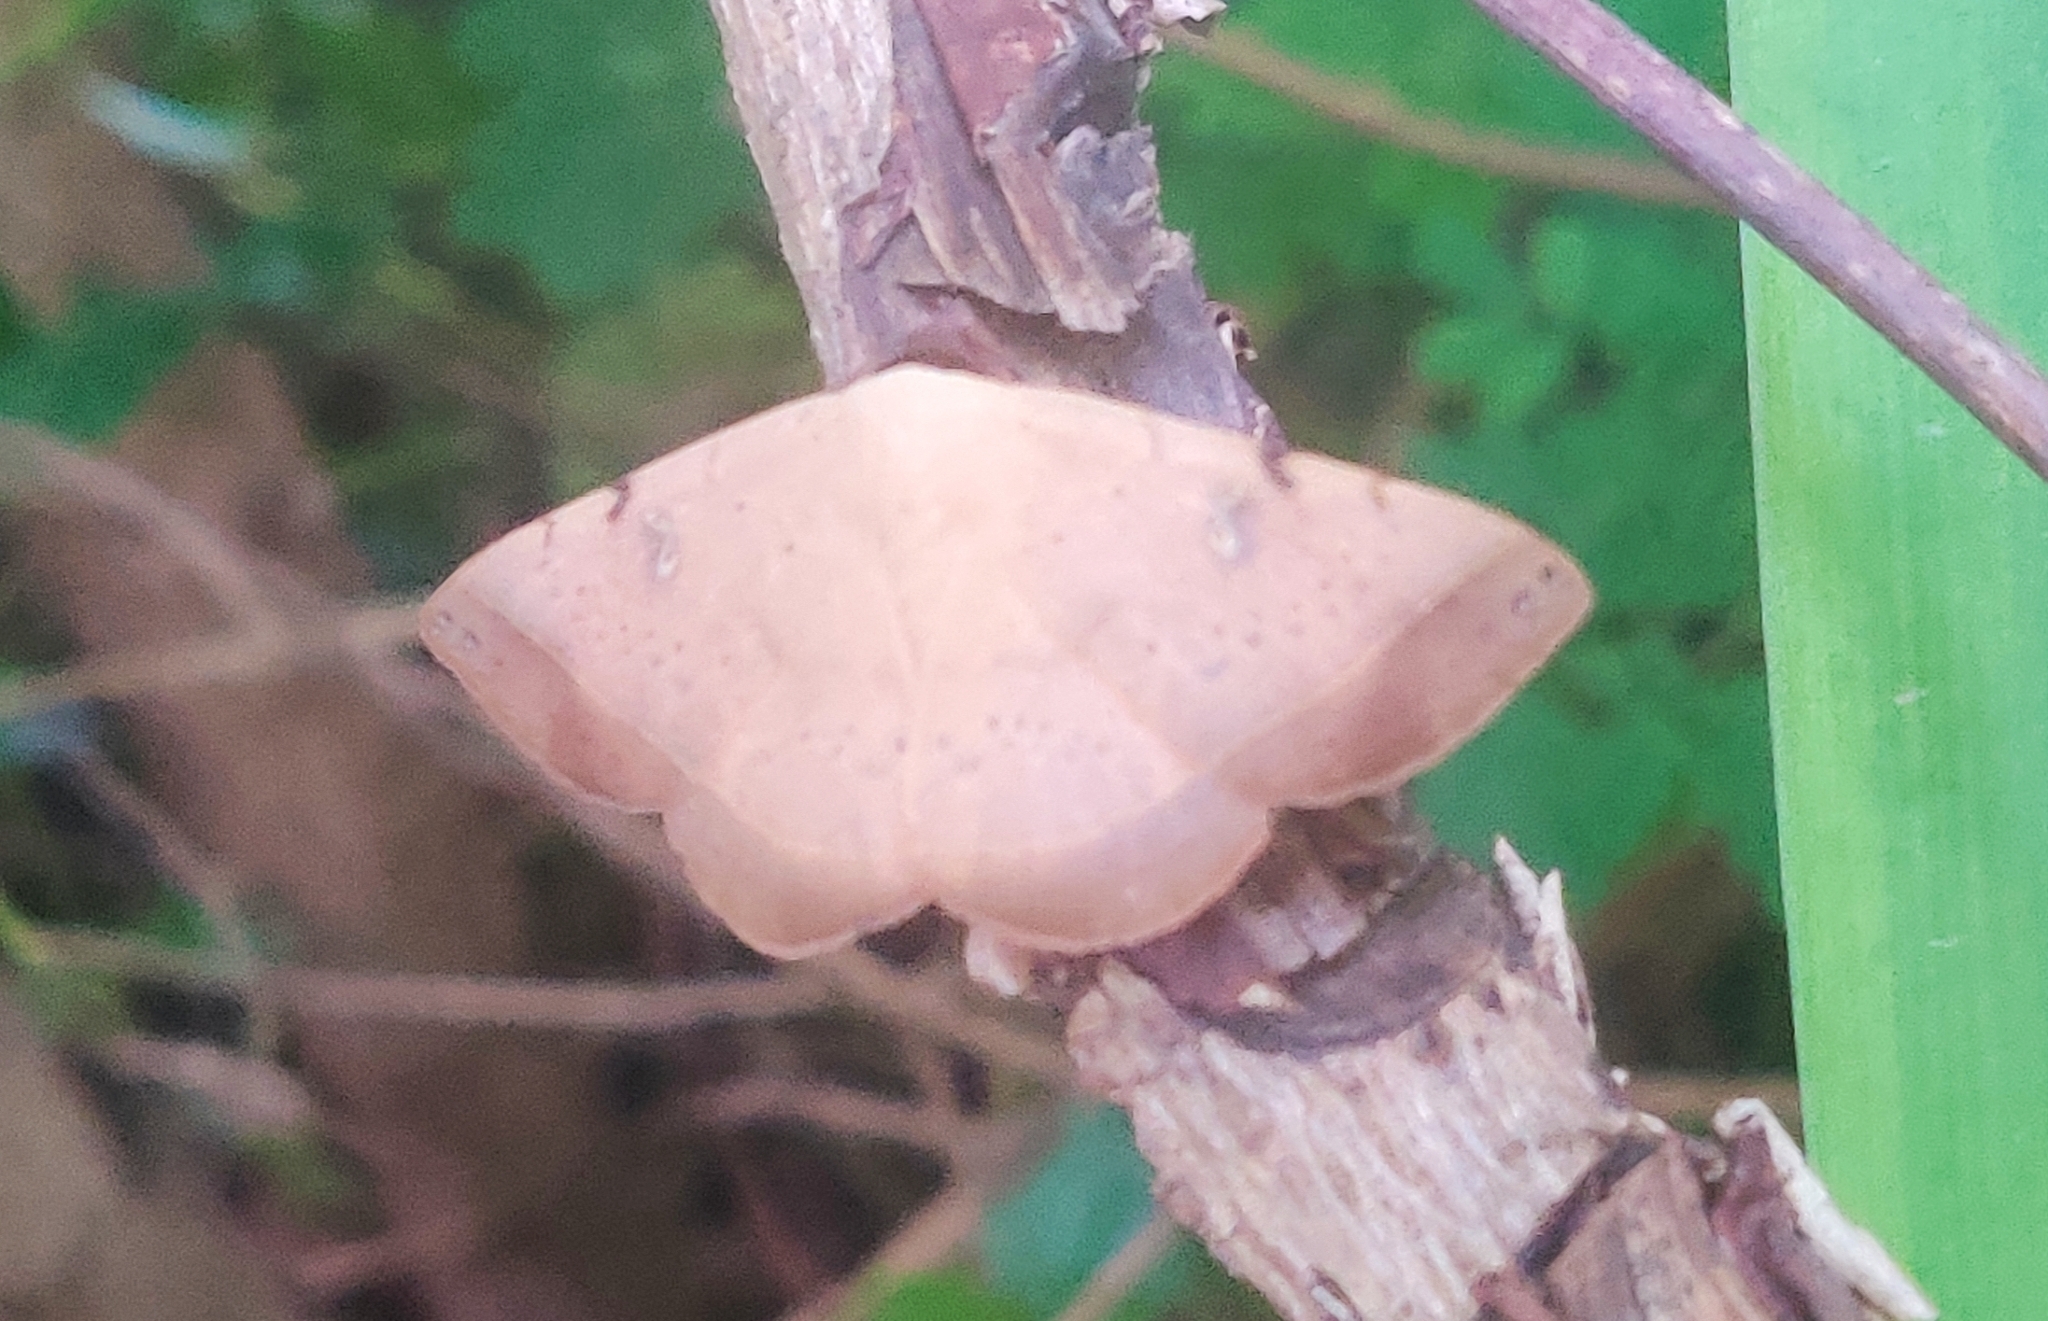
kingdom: Animalia
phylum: Arthropoda
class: Insecta
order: Lepidoptera
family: Erebidae
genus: Hypopyra
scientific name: Hypopyra meridionalis
